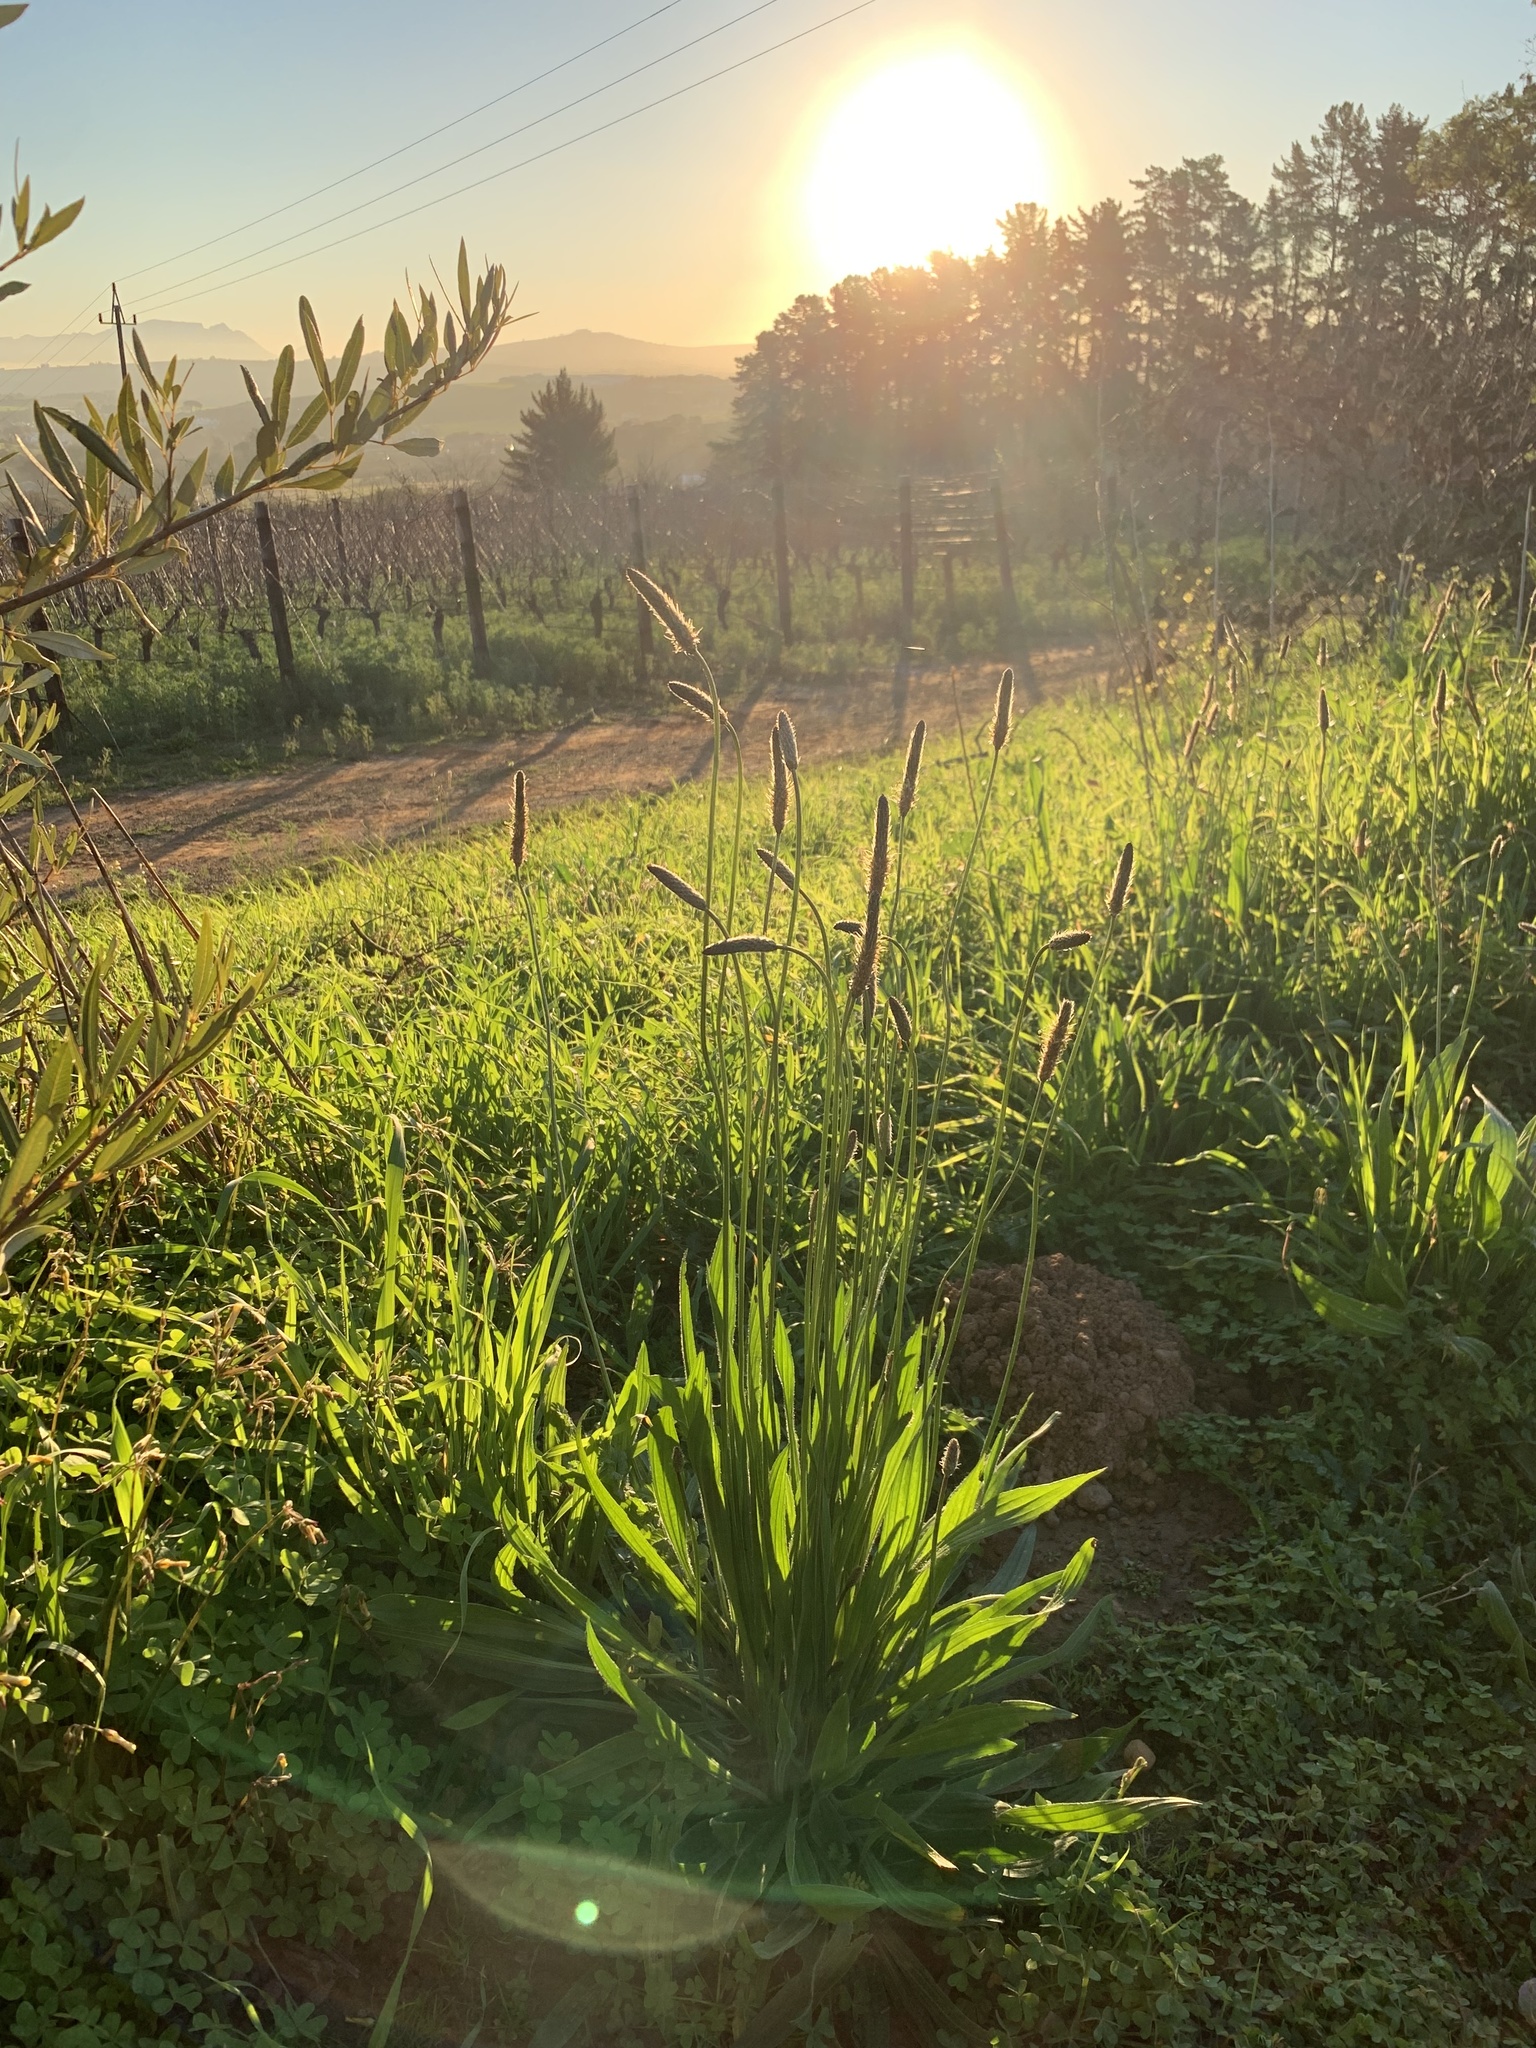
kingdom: Plantae
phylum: Tracheophyta
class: Magnoliopsida
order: Lamiales
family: Plantaginaceae
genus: Plantago
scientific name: Plantago lanceolata
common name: Ribwort plantain
